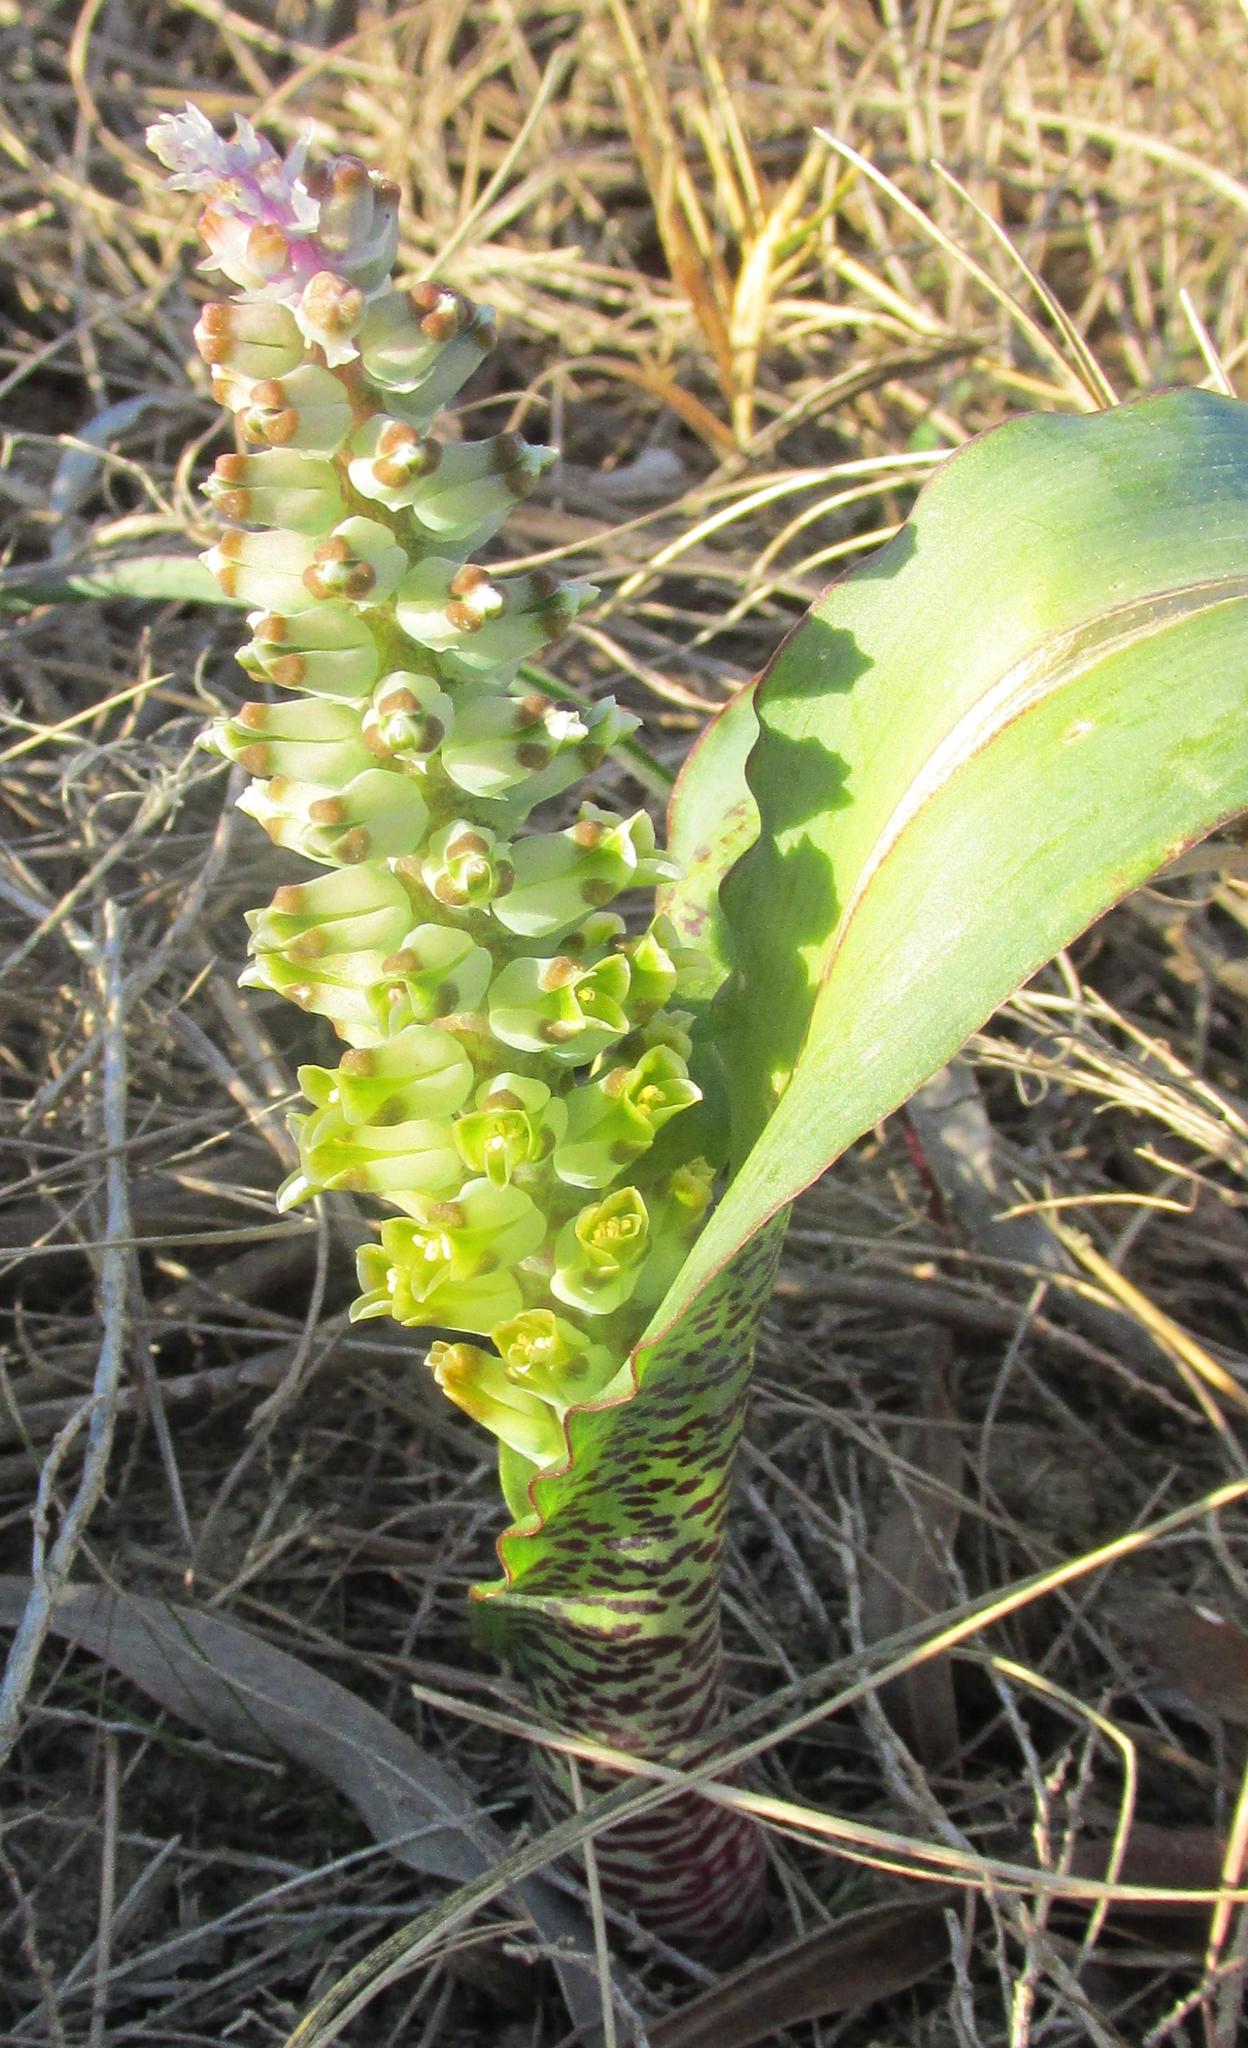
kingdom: Plantae
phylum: Tracheophyta
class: Liliopsida
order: Asparagales
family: Asparagaceae
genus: Lachenalia
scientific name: Lachenalia mutabilis
